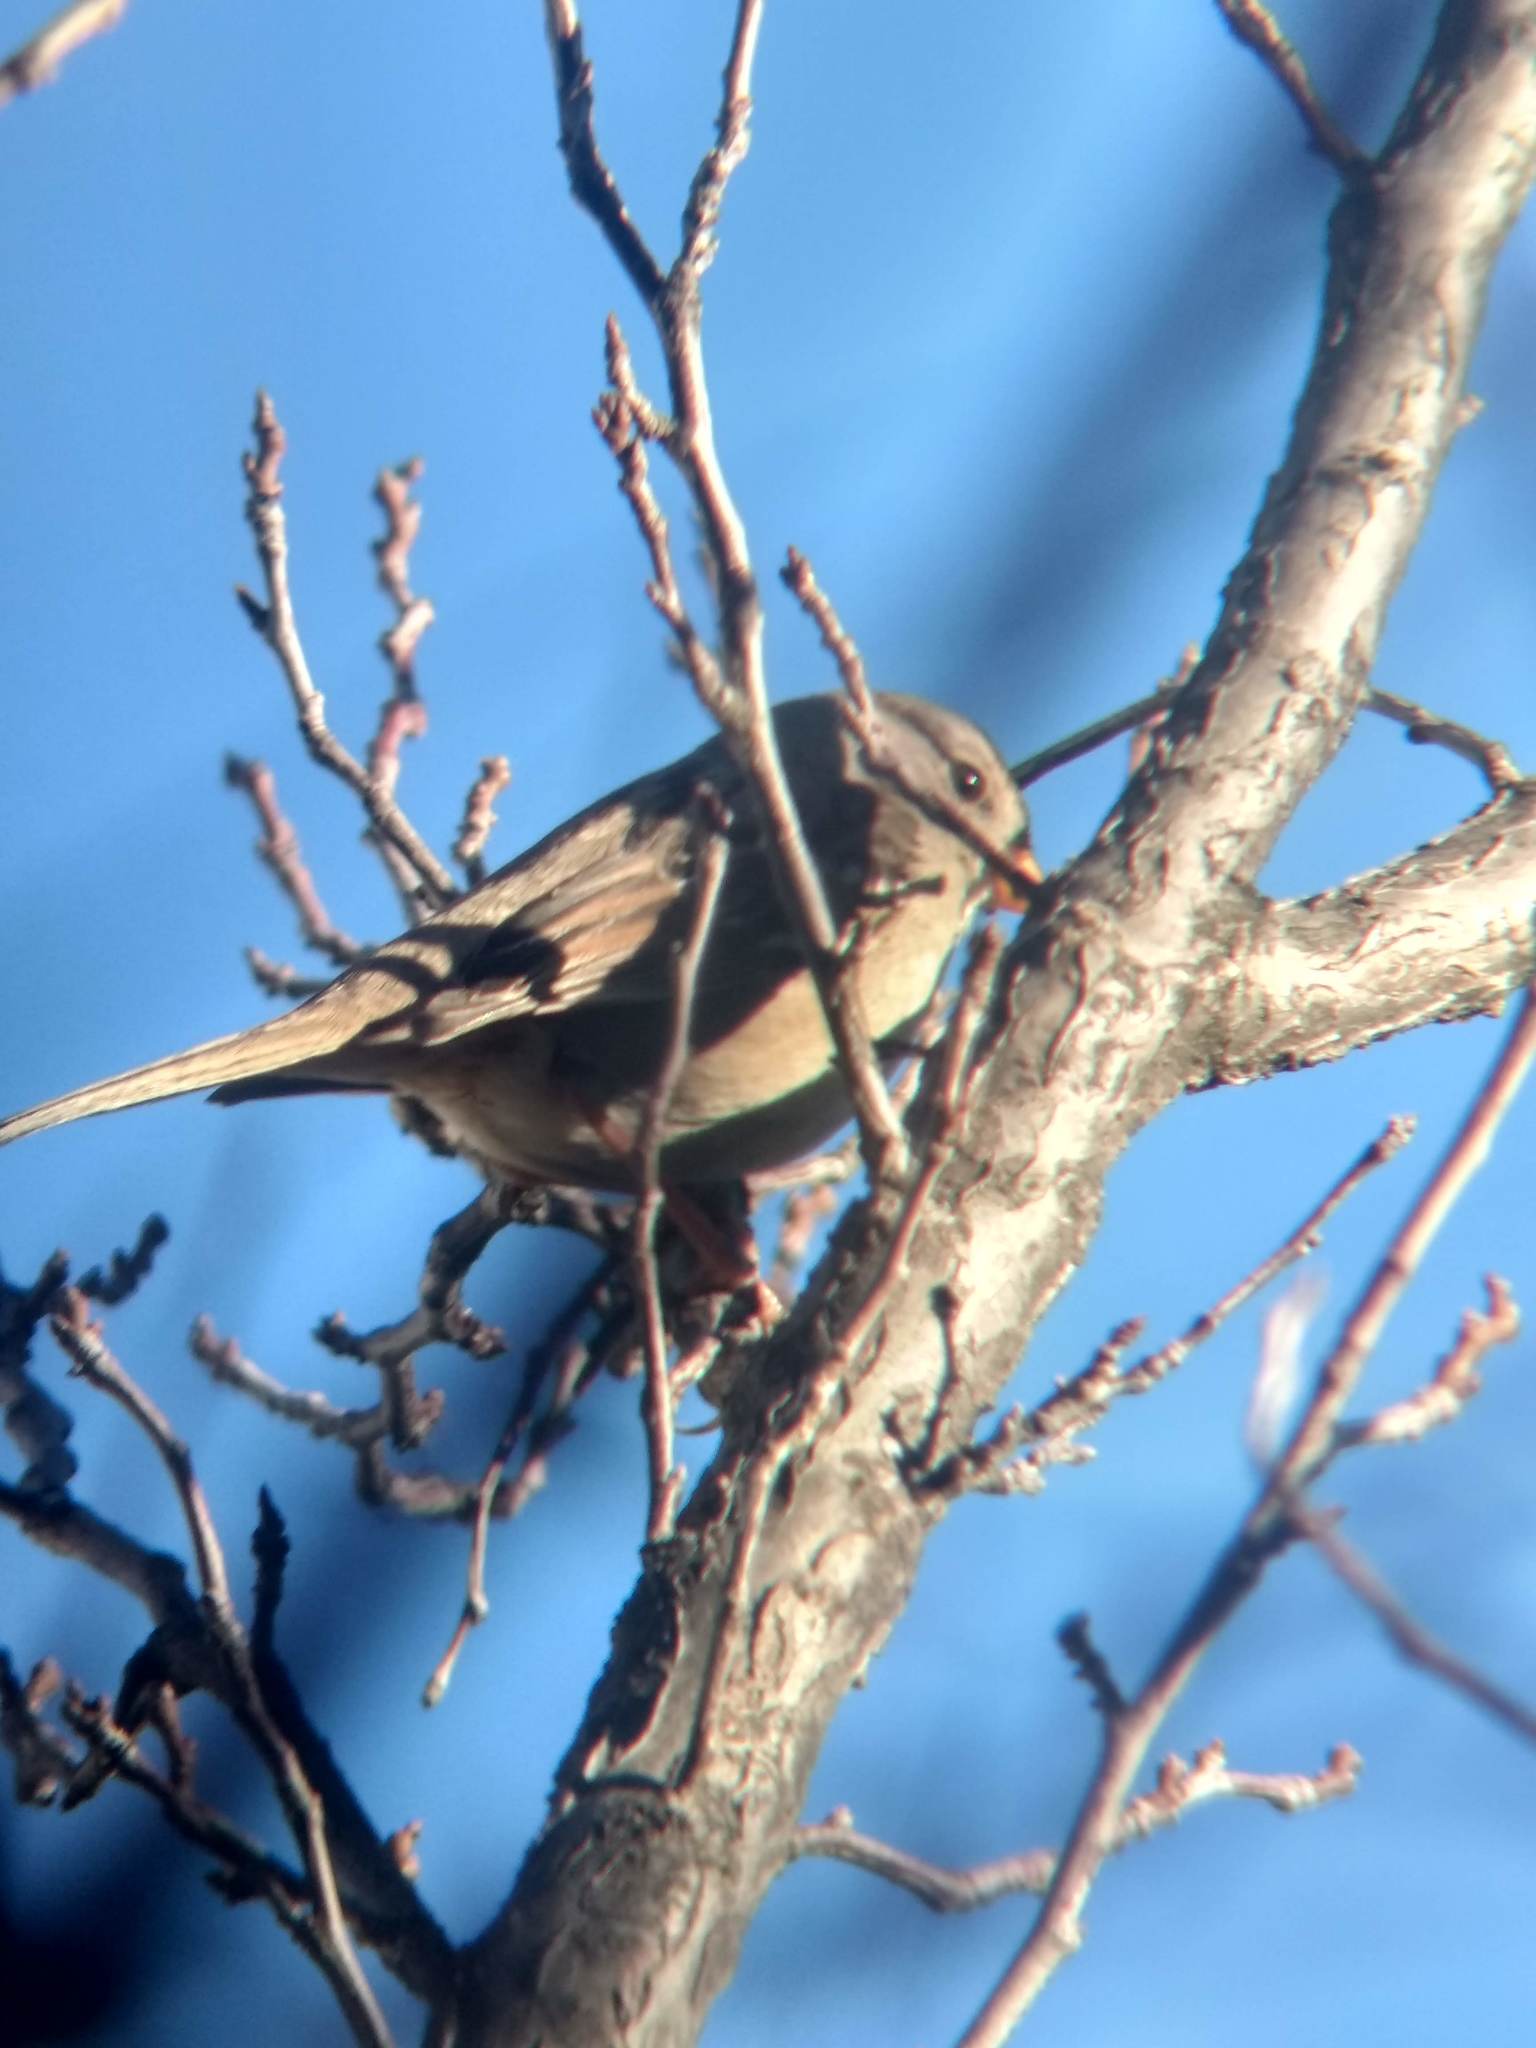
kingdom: Animalia
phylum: Chordata
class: Aves
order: Passeriformes
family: Passerellidae
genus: Zonotrichia
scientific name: Zonotrichia leucophrys
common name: White-crowned sparrow
